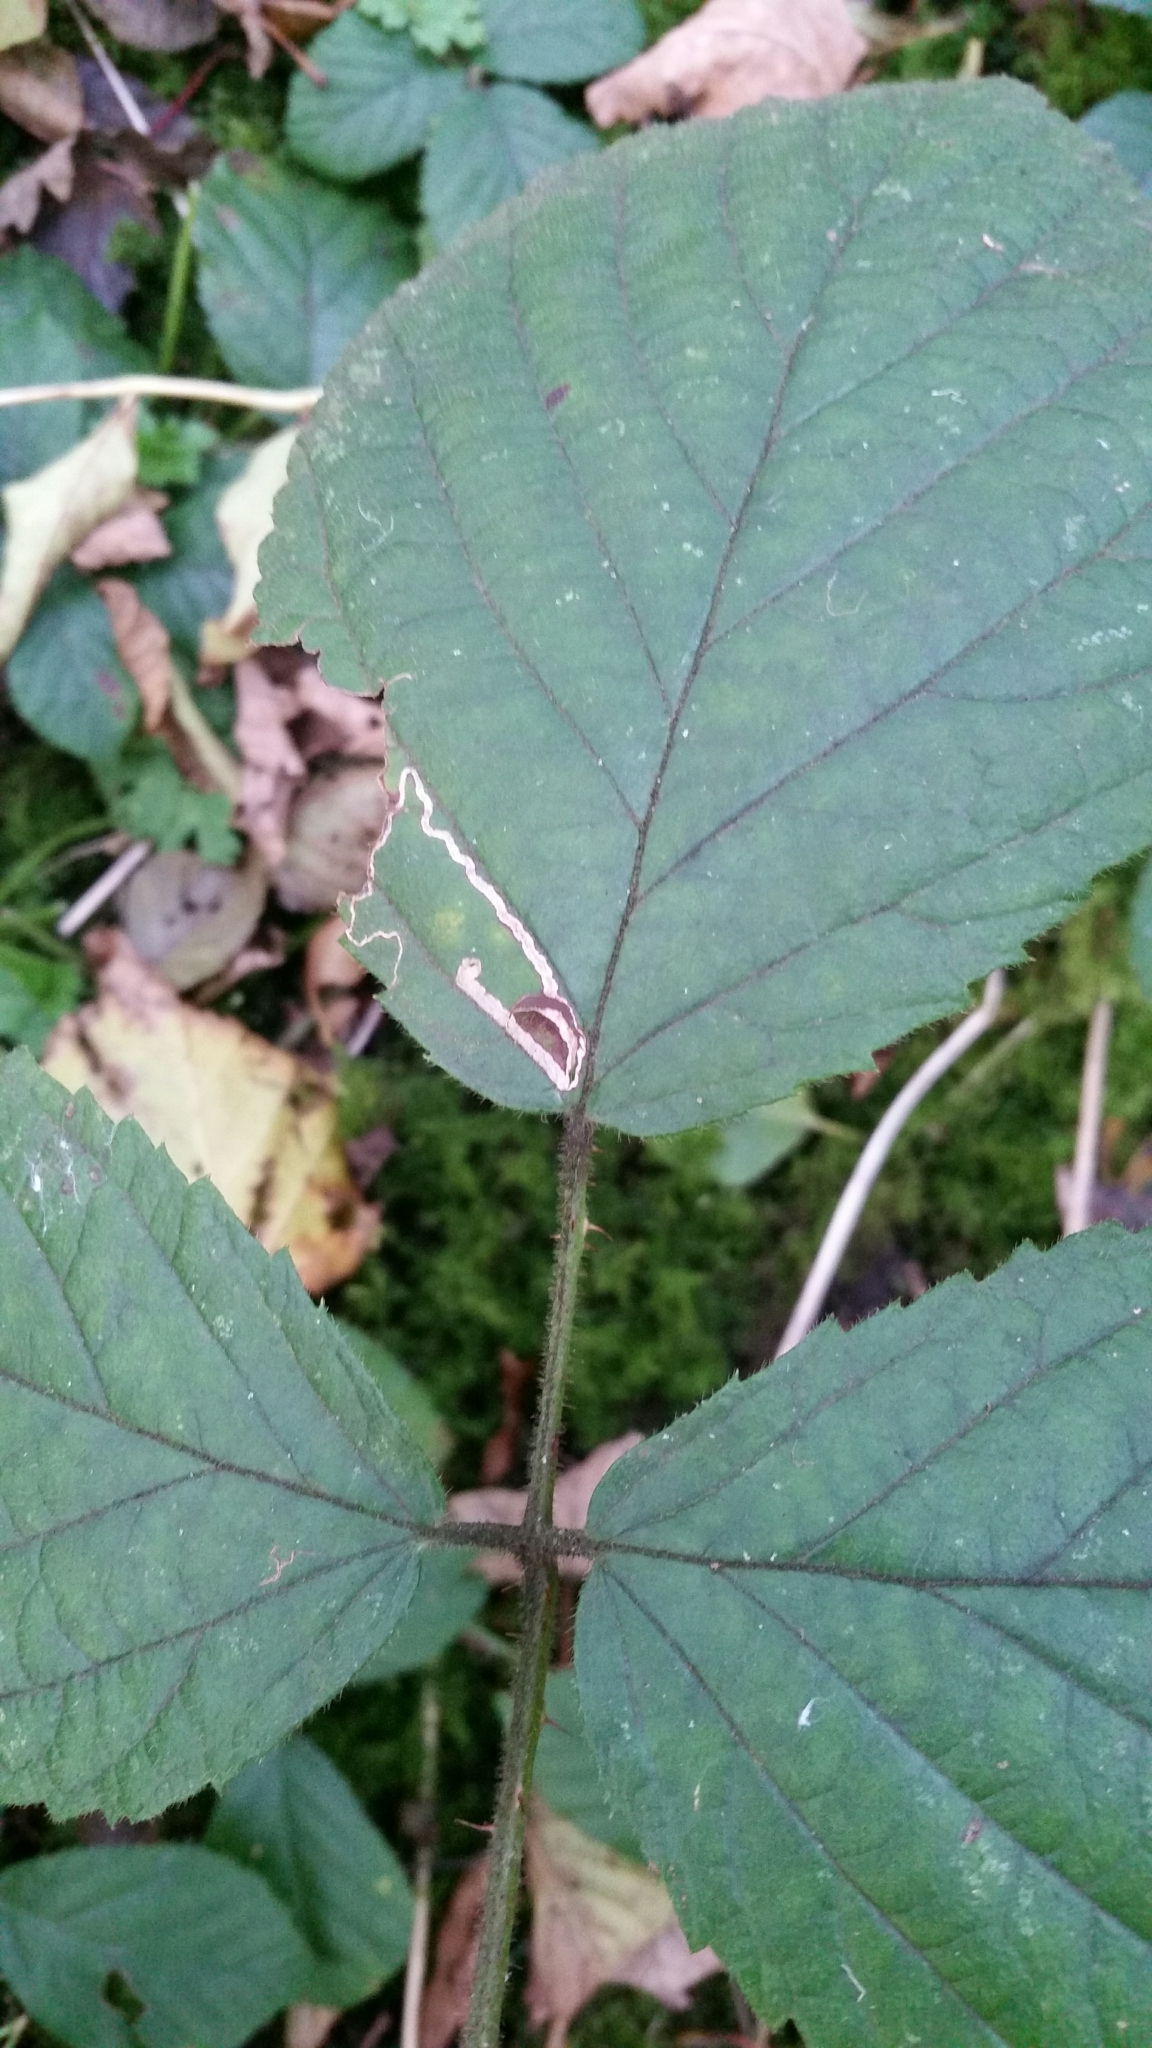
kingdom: Animalia
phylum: Arthropoda
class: Insecta
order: Lepidoptera
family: Nepticulidae
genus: Stigmella
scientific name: Stigmella aurella
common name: Golden pigmy
